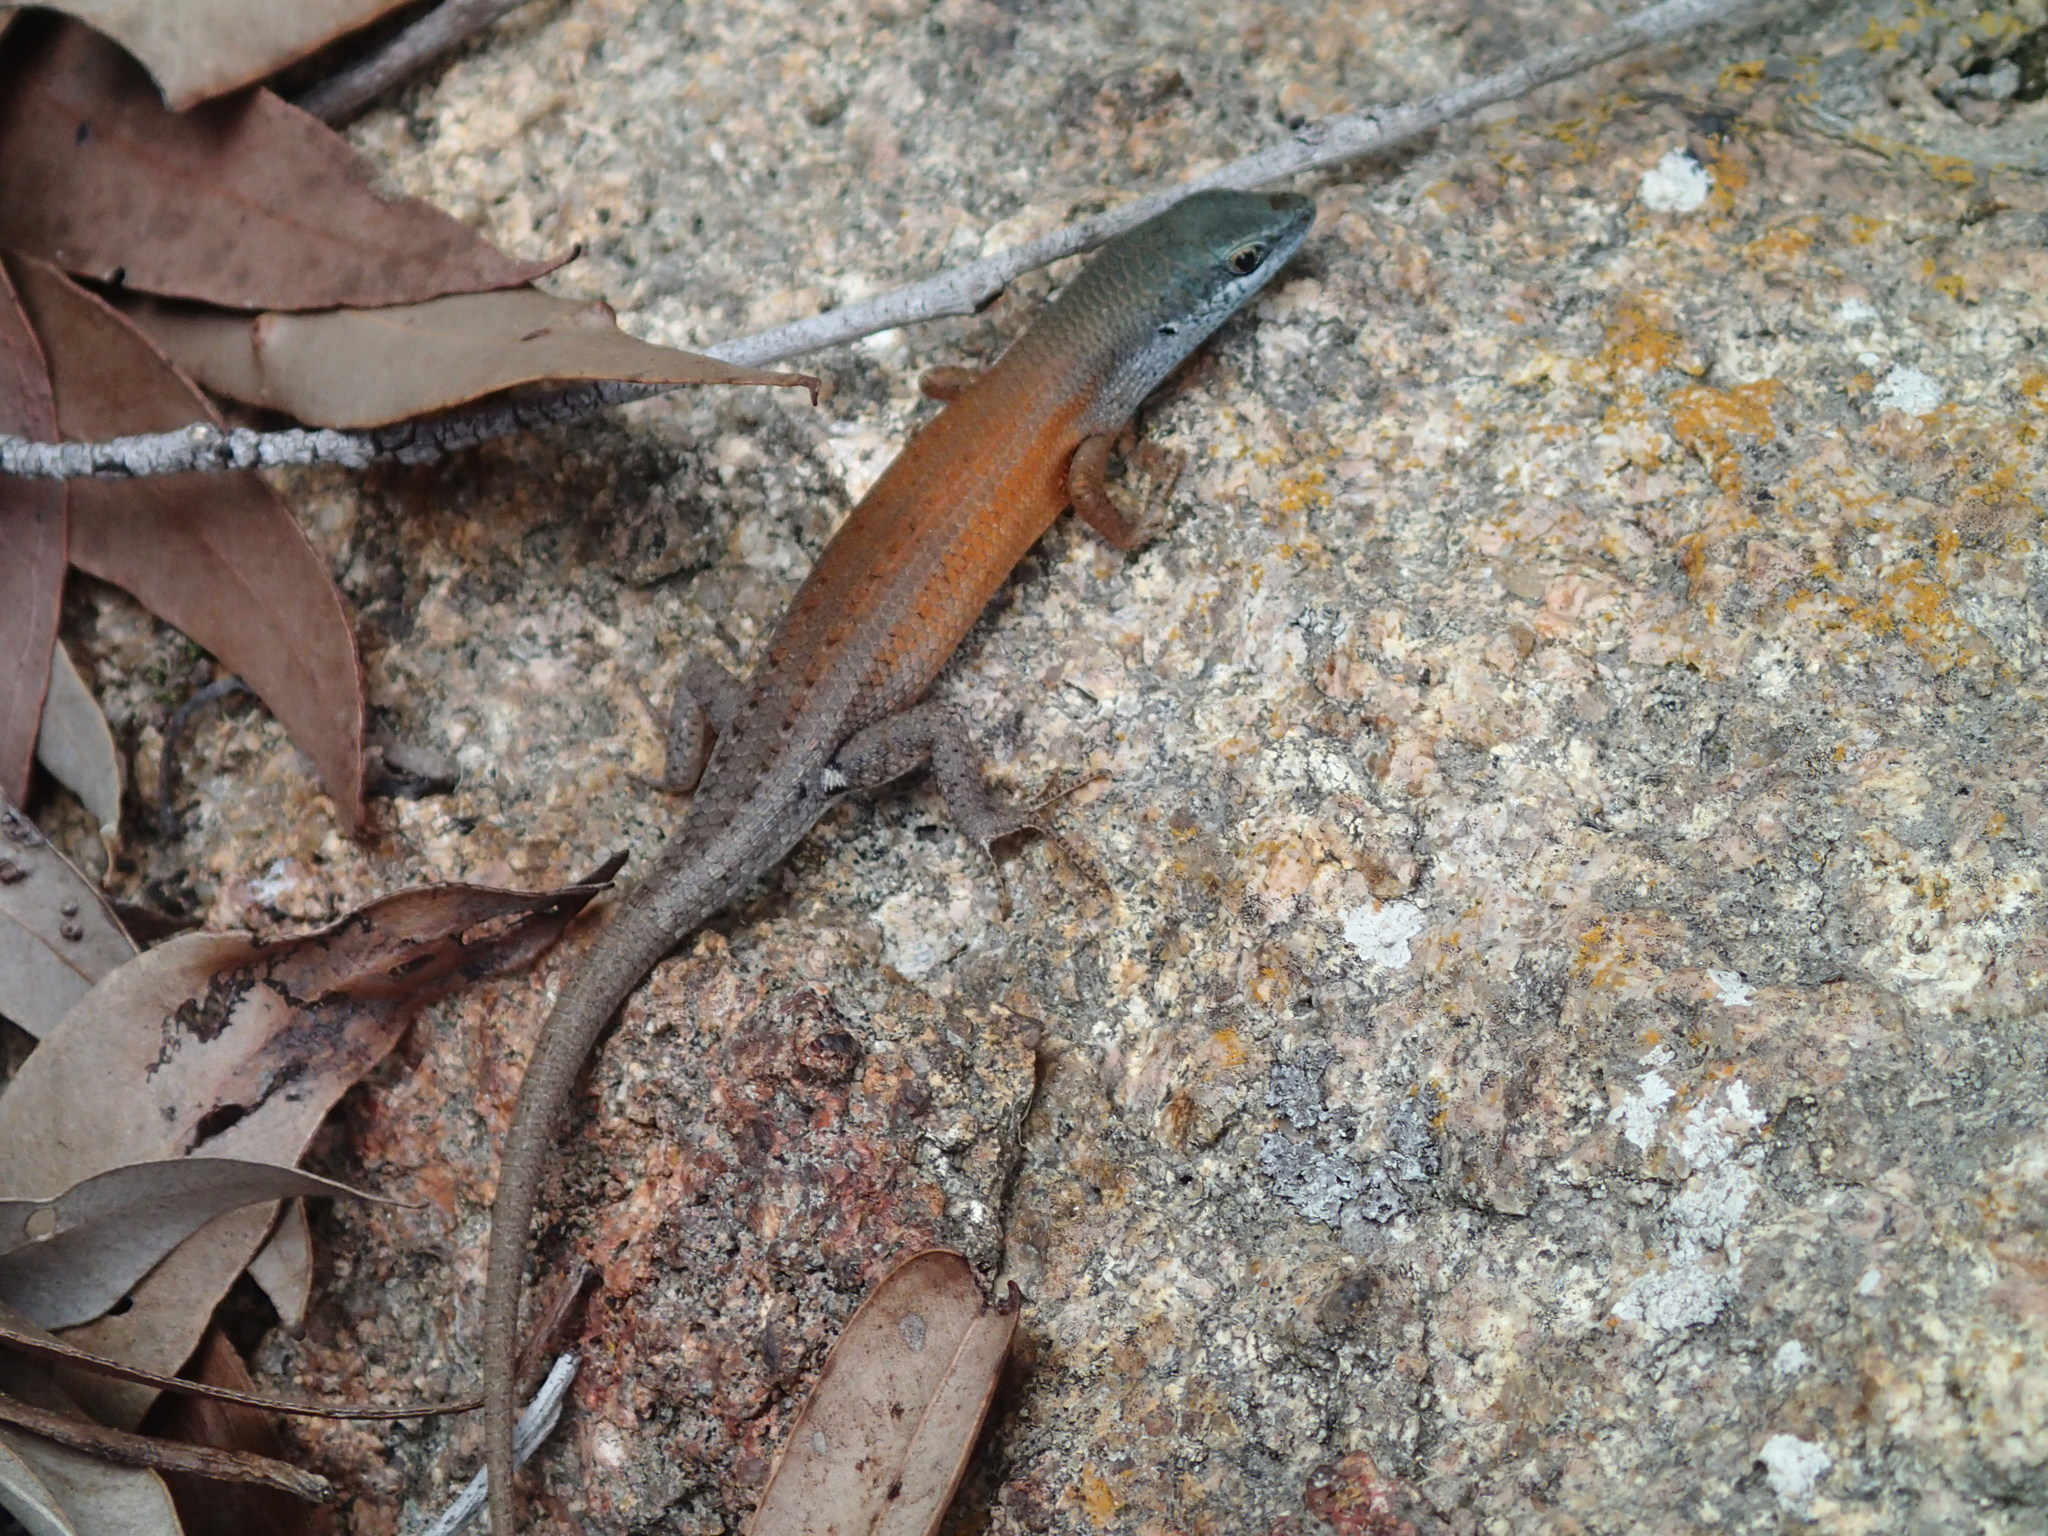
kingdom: Animalia
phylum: Chordata
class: Squamata
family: Scincidae
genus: Carlia
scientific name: Carlia rubigo
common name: Orange-flanked rainbow-skink
